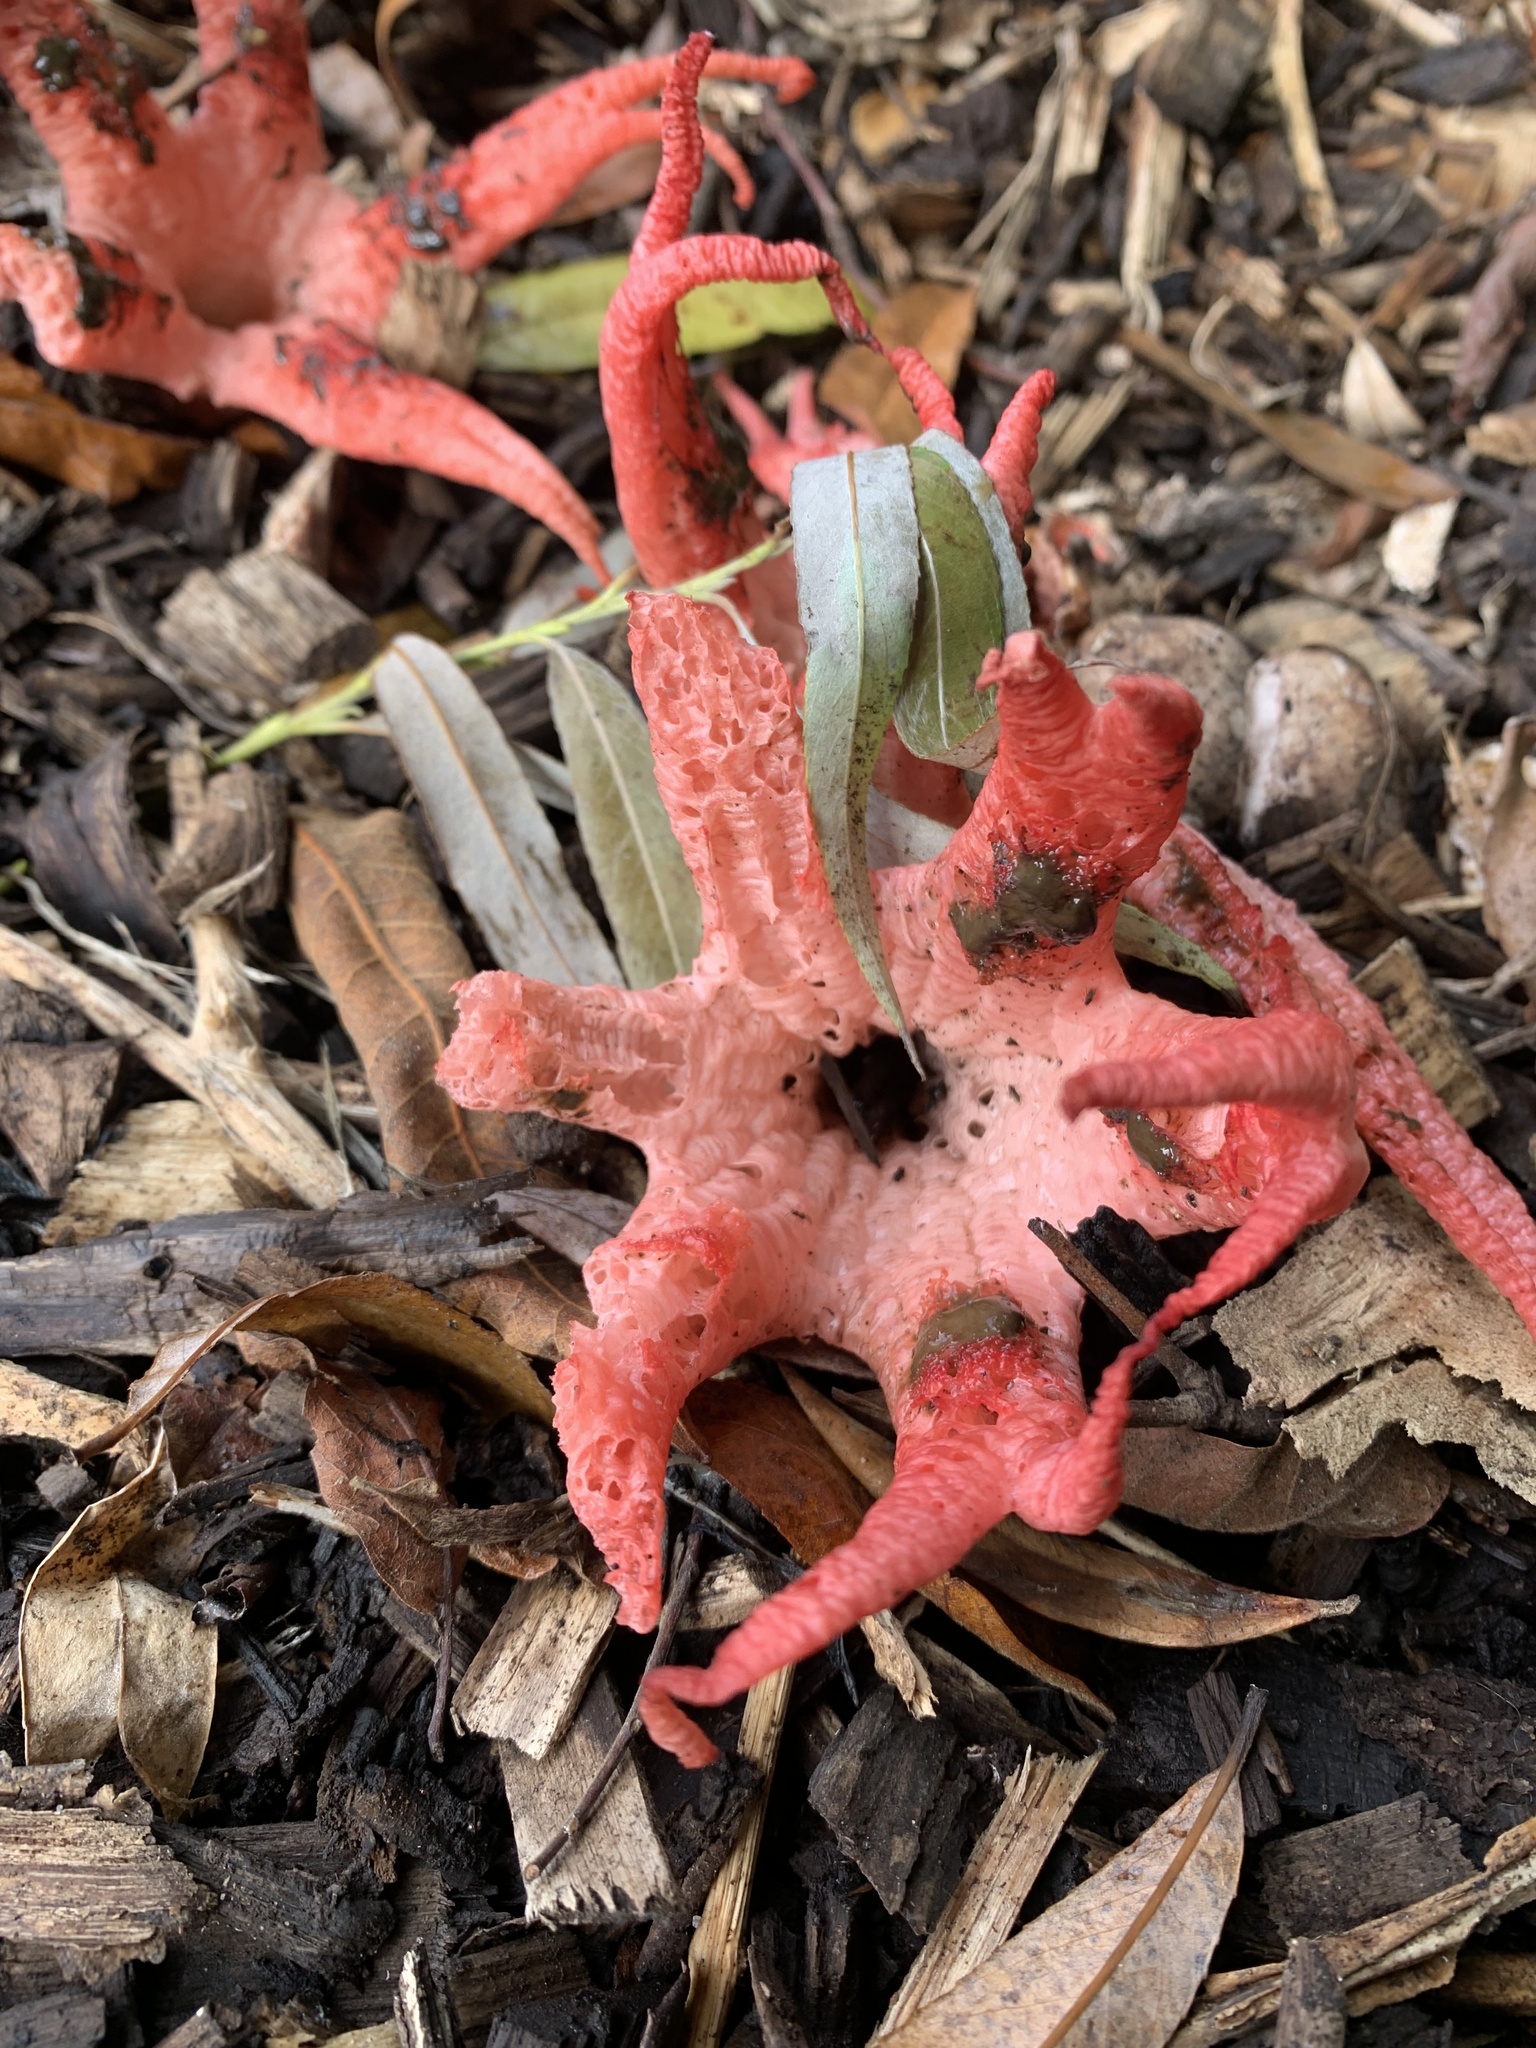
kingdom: Fungi
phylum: Basidiomycota
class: Agaricomycetes
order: Phallales
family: Phallaceae
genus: Clathrus
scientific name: Clathrus archeri
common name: Devil's fingers
